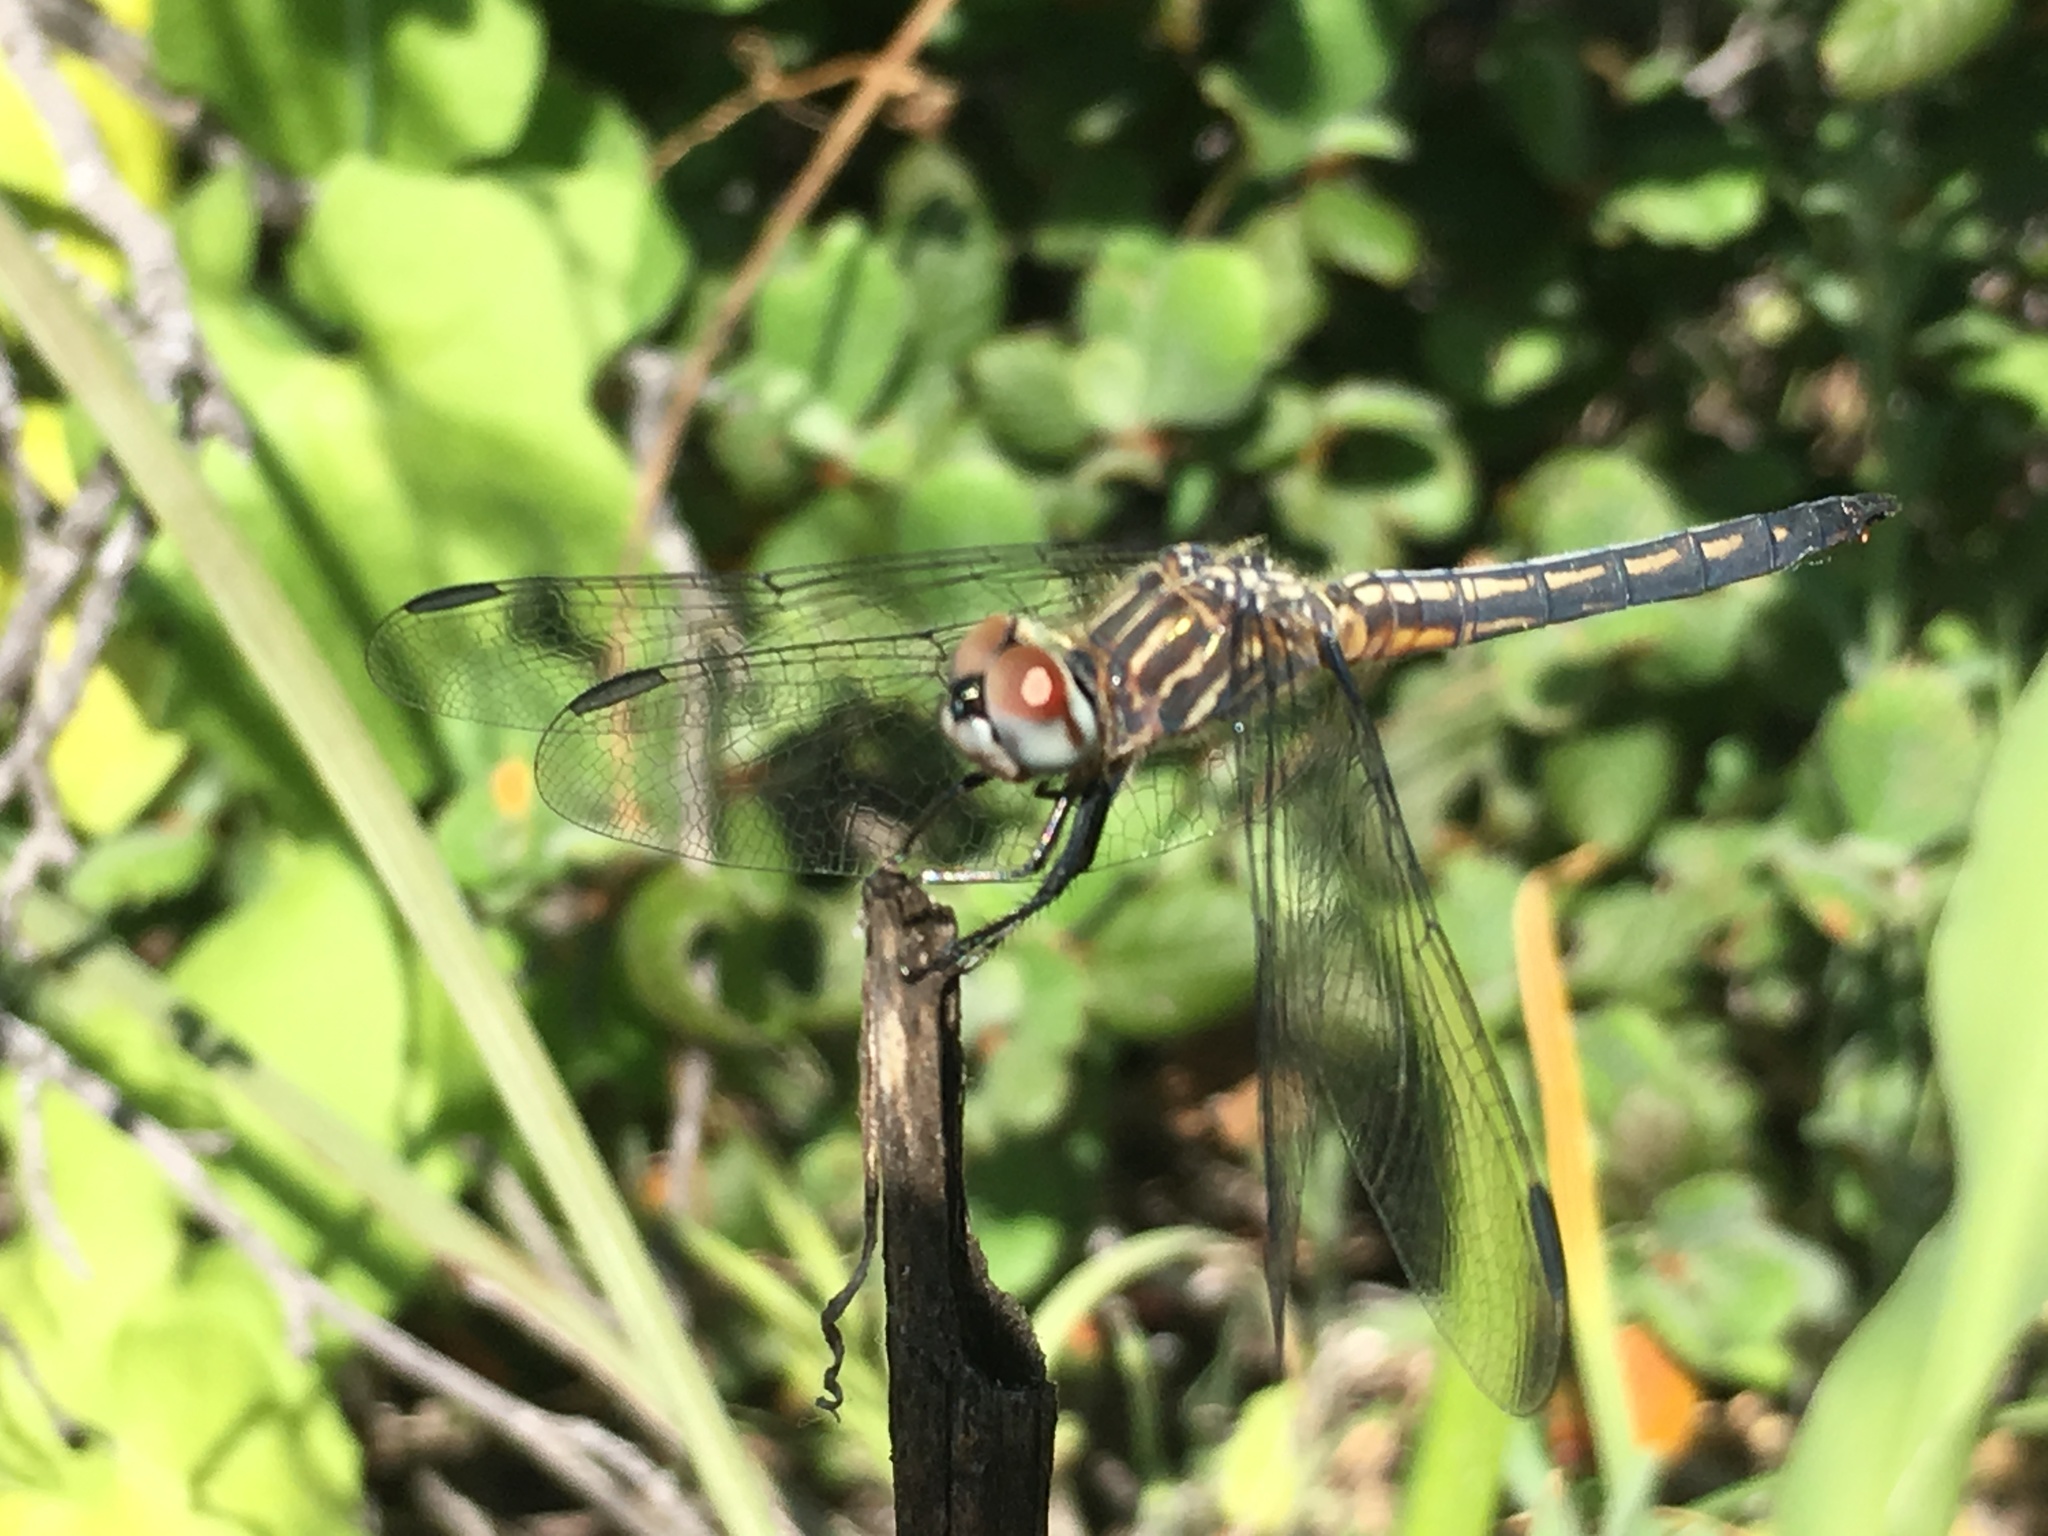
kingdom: Animalia
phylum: Arthropoda
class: Insecta
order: Odonata
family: Libellulidae
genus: Pachydiplax
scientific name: Pachydiplax longipennis
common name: Blue dasher
